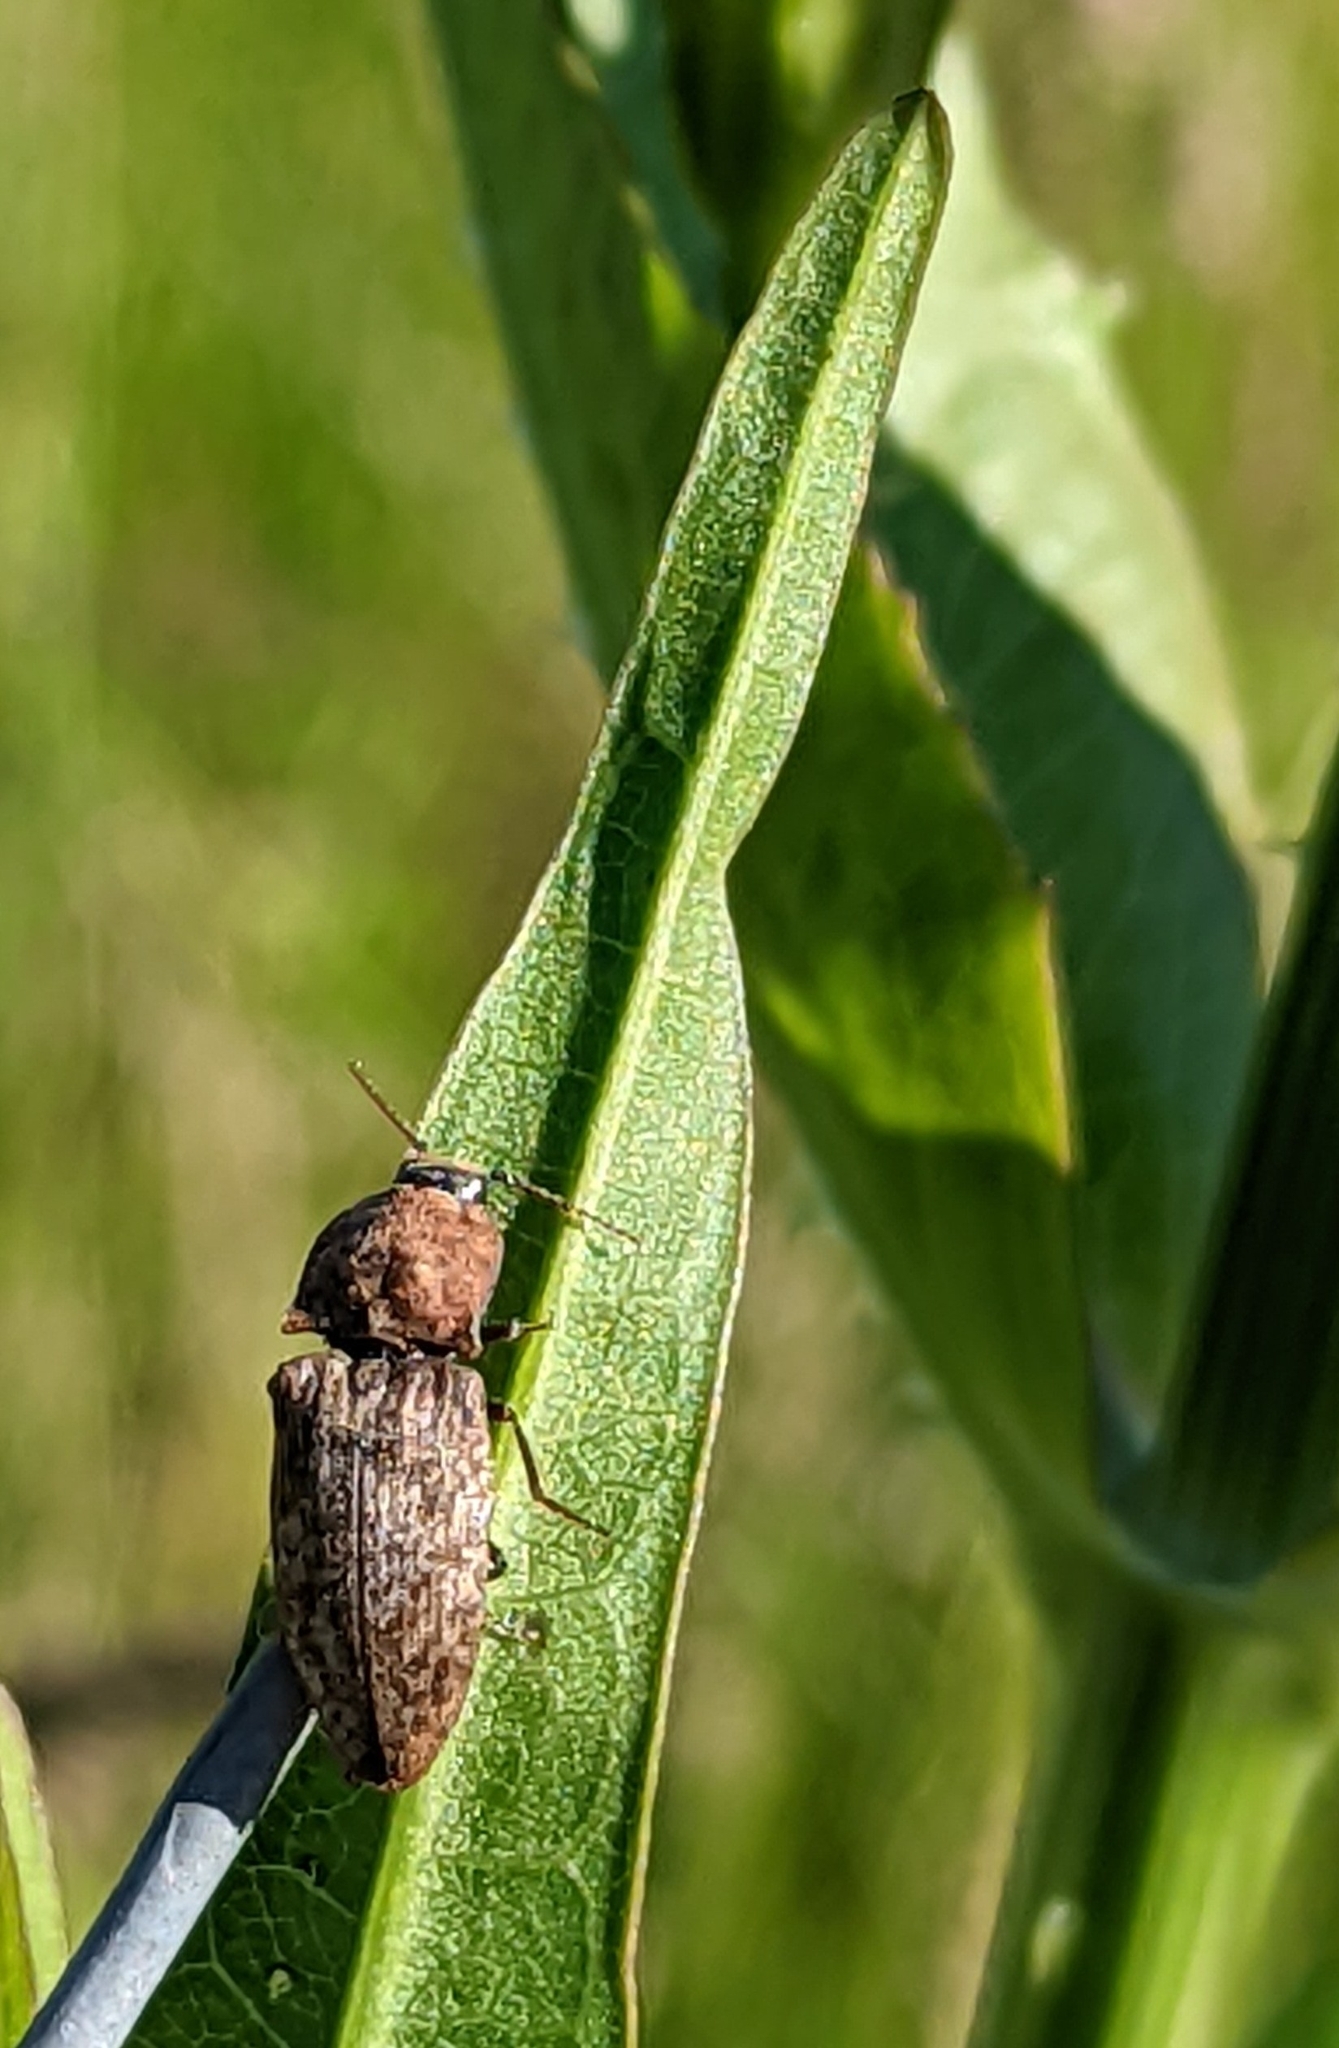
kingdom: Animalia
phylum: Arthropoda
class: Insecta
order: Coleoptera
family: Elateridae
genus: Agrypnus
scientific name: Agrypnus murinus
